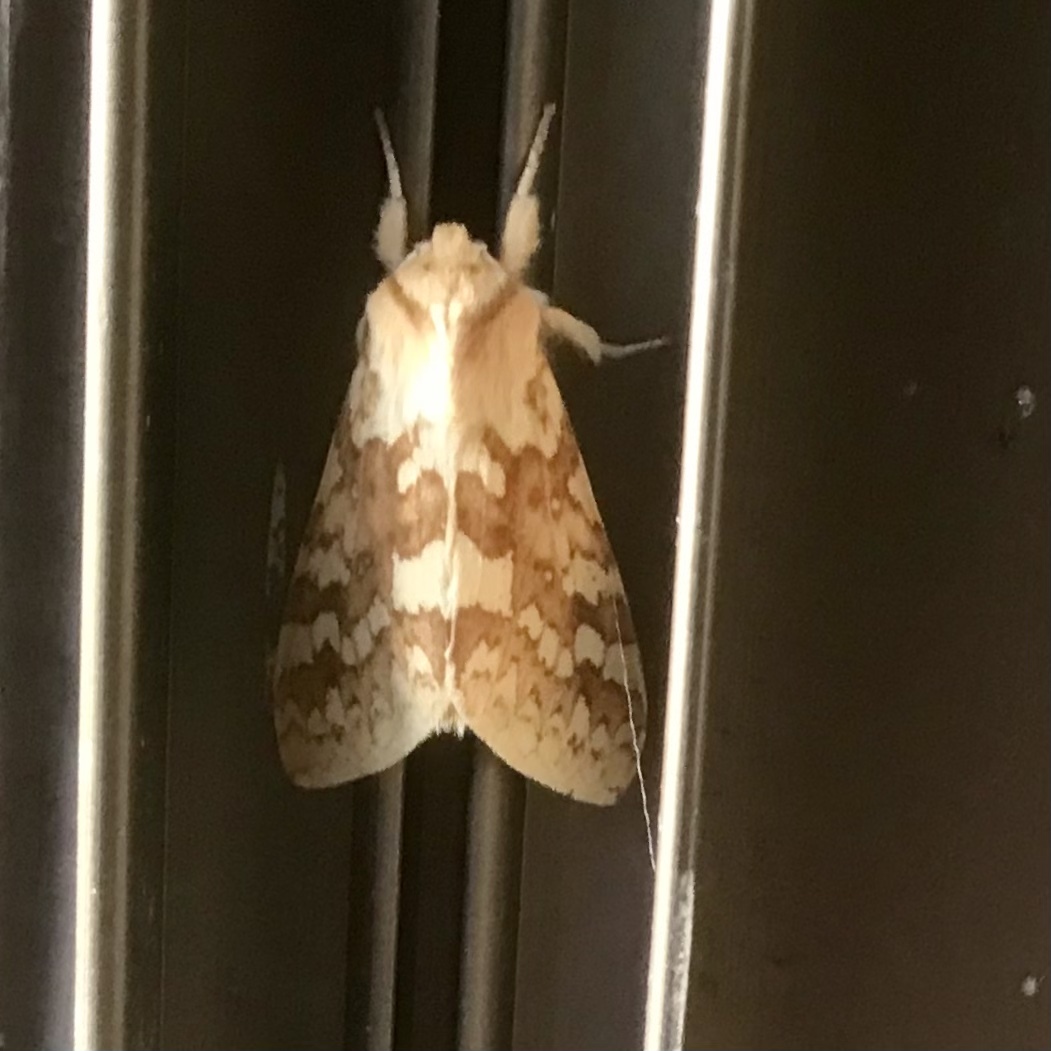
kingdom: Animalia
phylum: Arthropoda
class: Insecta
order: Lepidoptera
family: Erebidae
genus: Lophocampa
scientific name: Lophocampa maculata
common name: Spotted tussock moth
